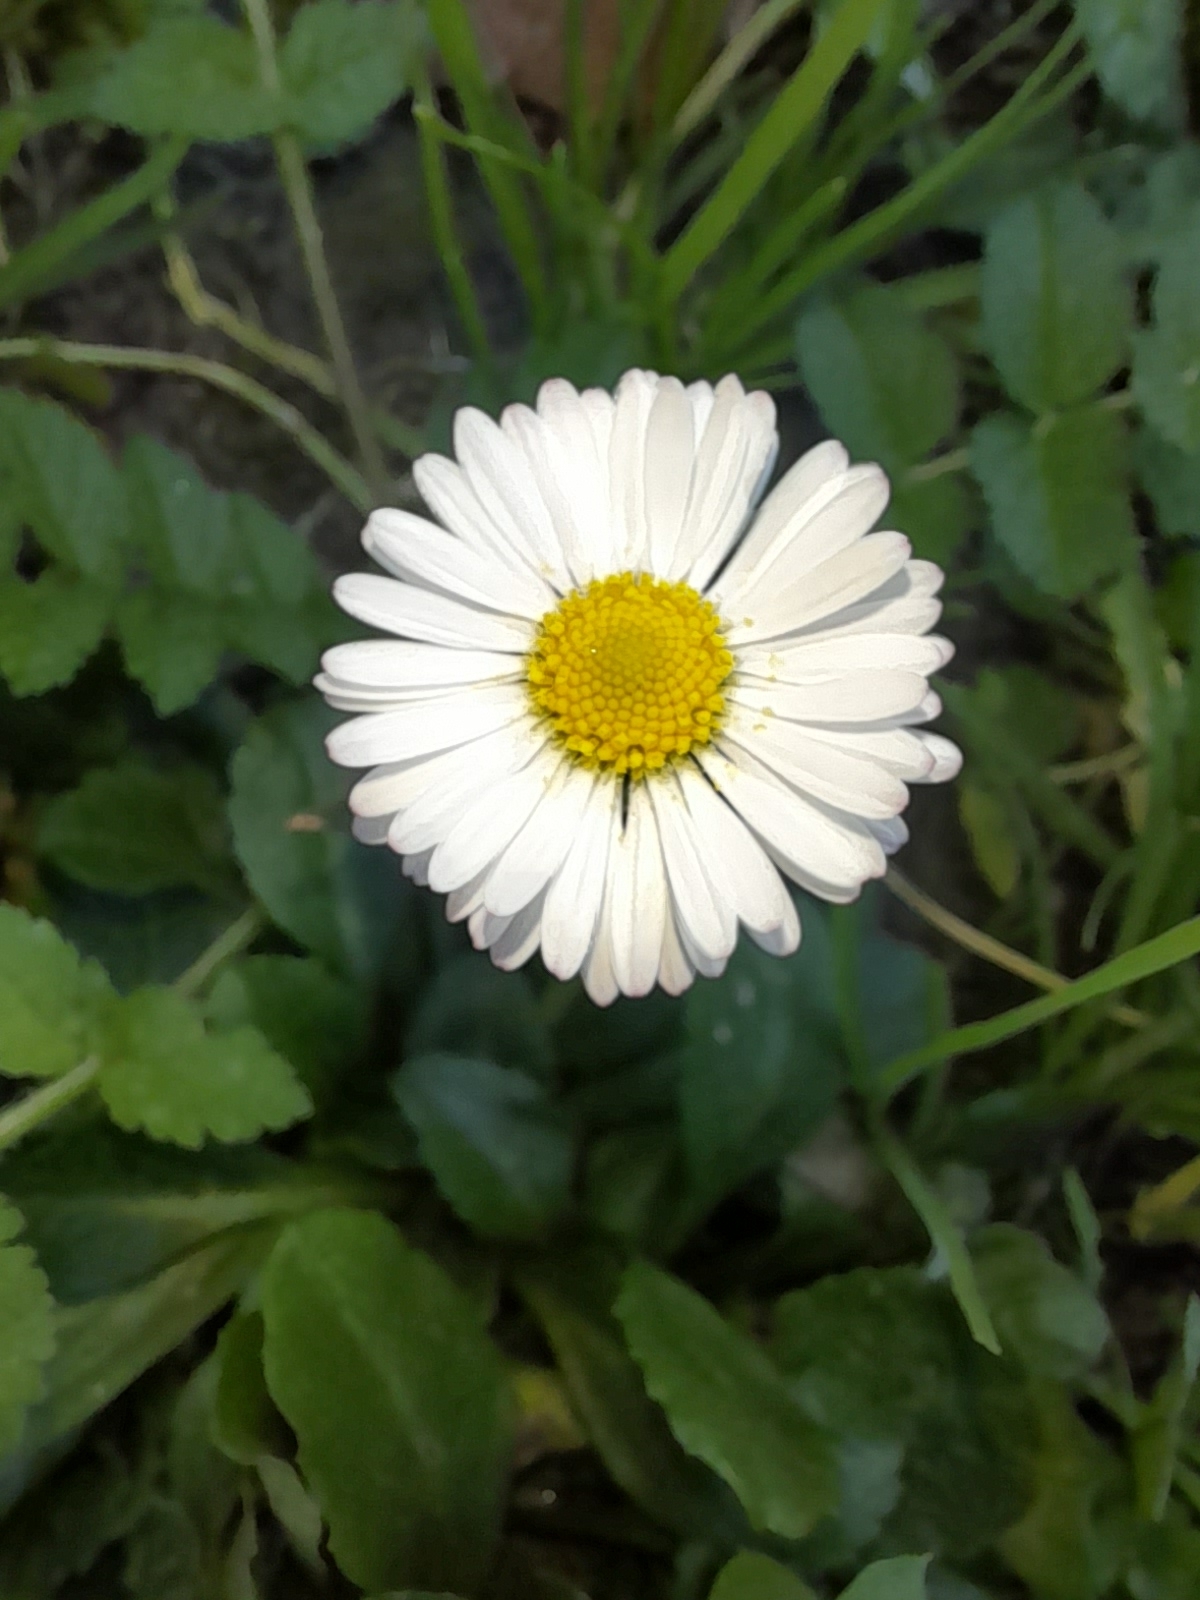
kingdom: Plantae
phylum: Tracheophyta
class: Magnoliopsida
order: Asterales
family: Asteraceae
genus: Bellis
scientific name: Bellis perennis
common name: Lawndaisy
